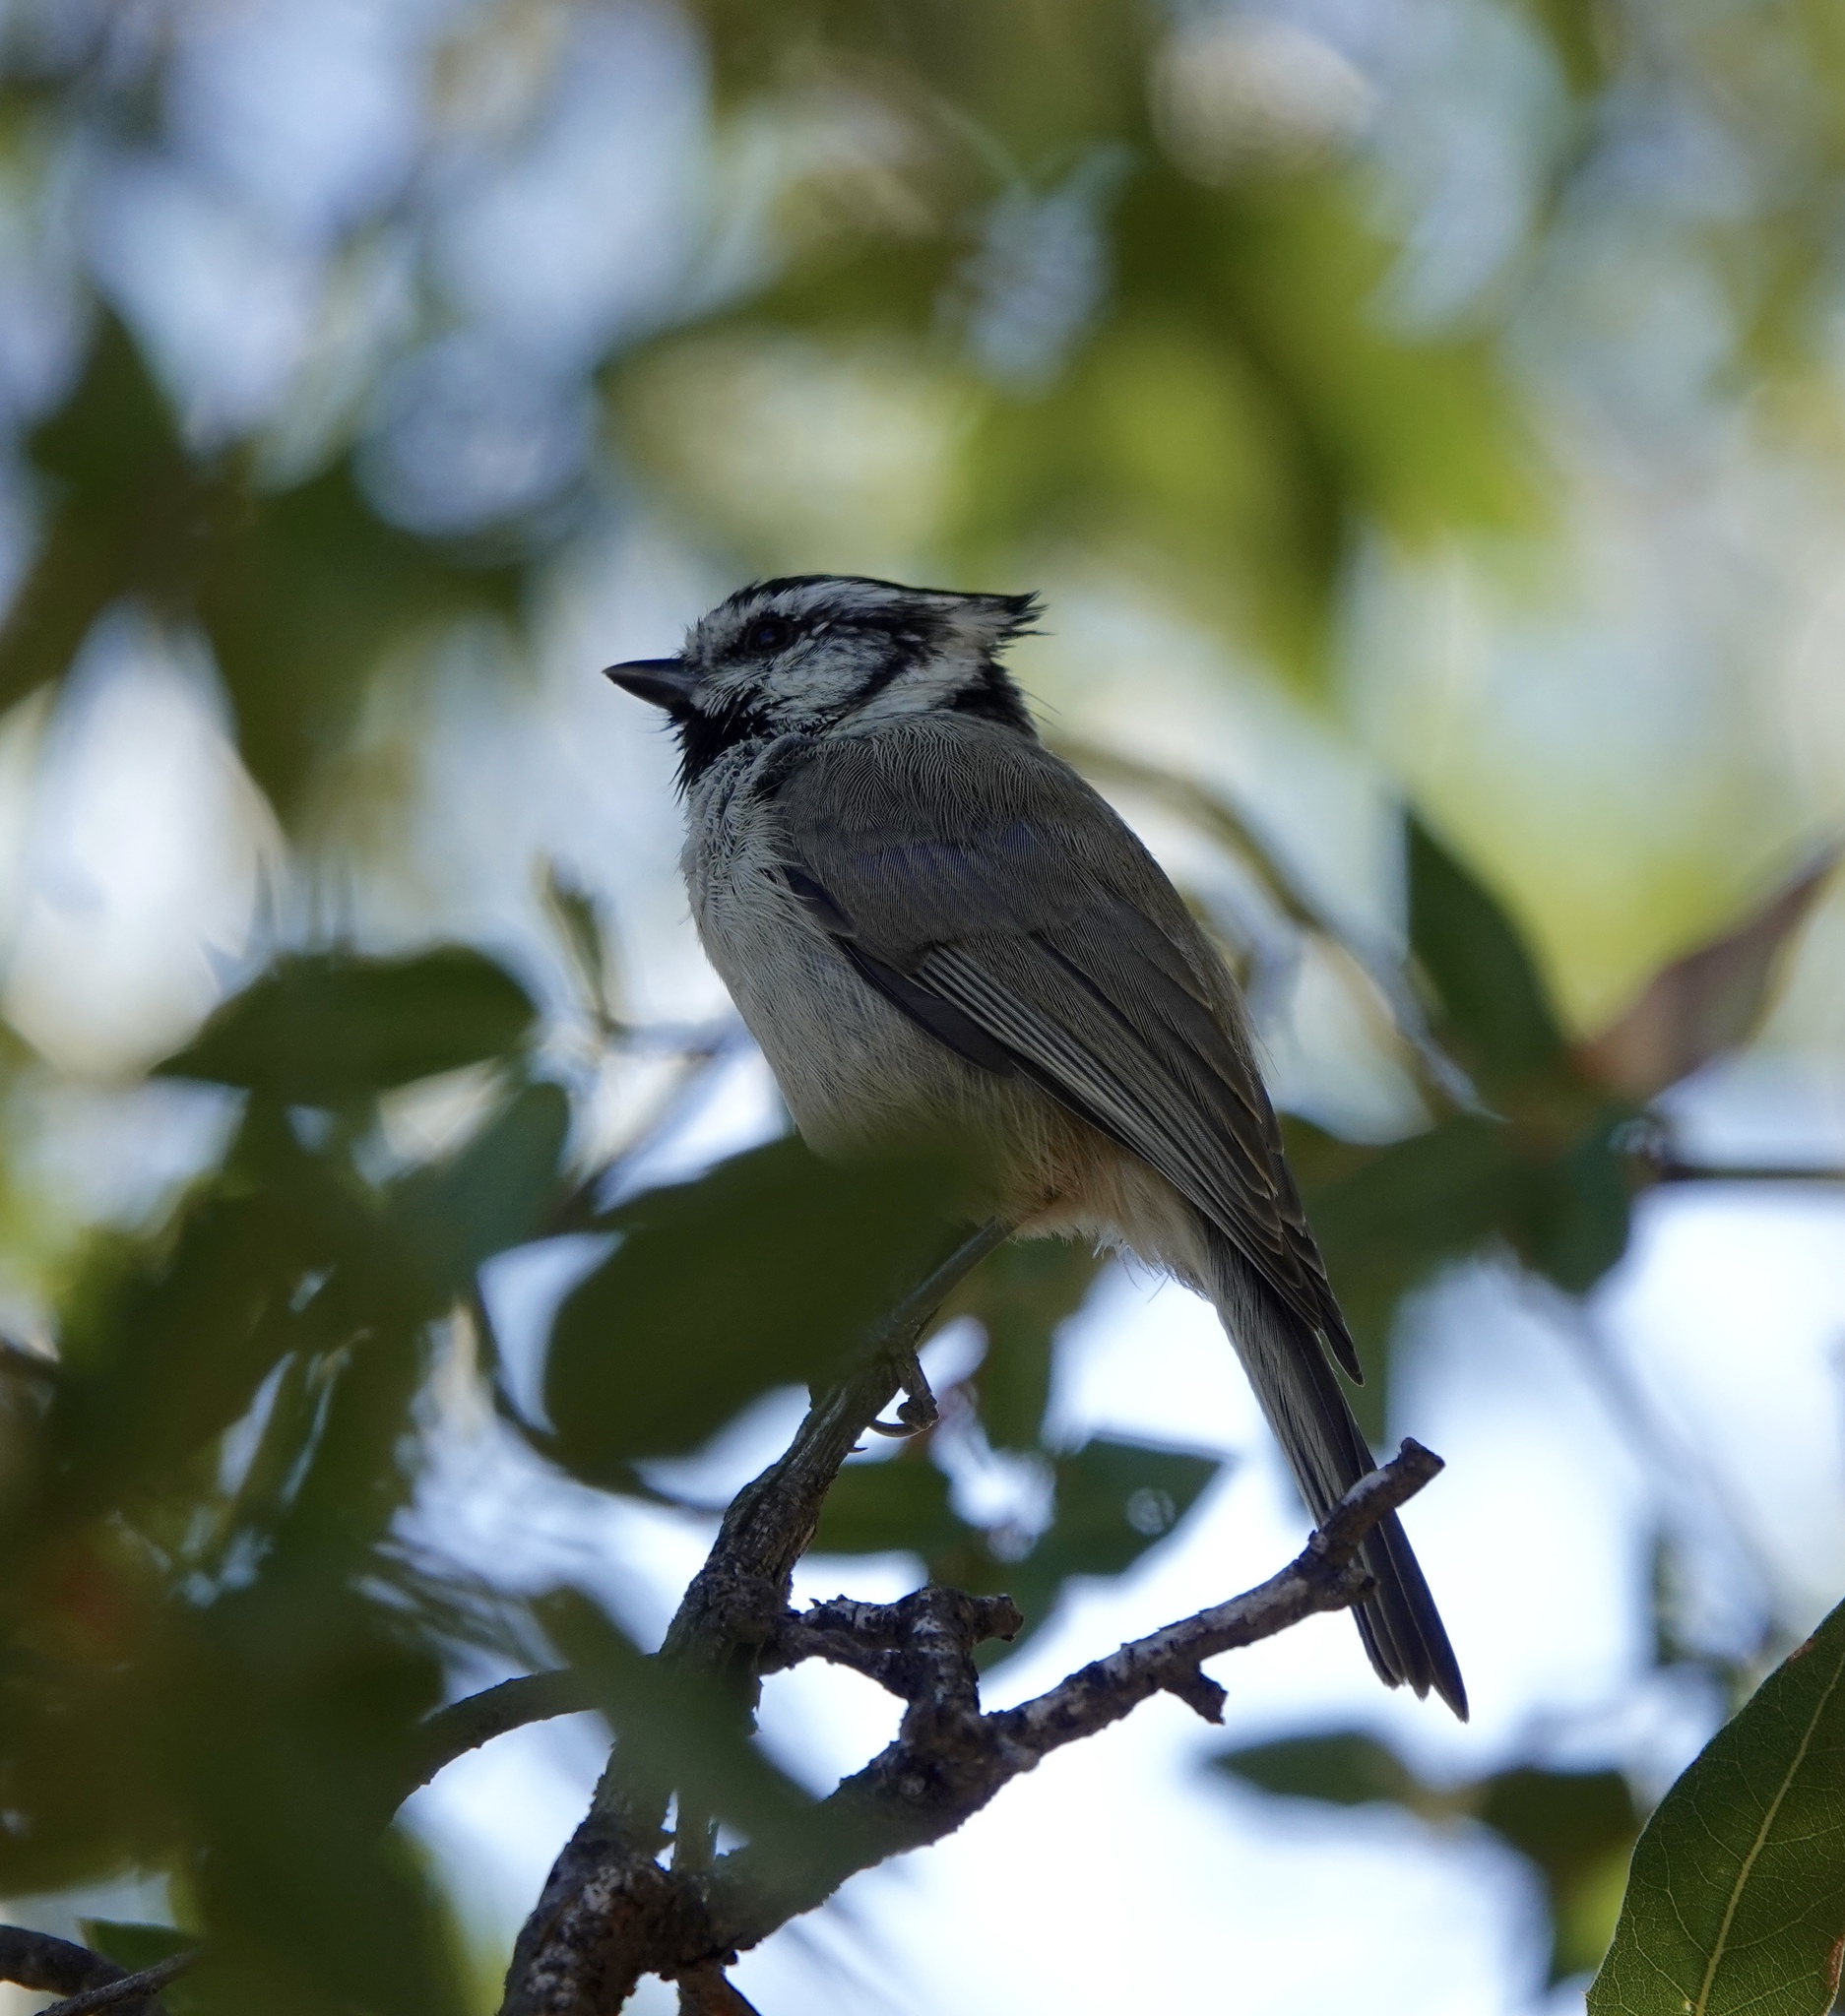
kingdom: Animalia
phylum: Chordata
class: Aves
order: Passeriformes
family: Paridae
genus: Baeolophus
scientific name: Baeolophus wollweberi
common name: Bridled titmouse
